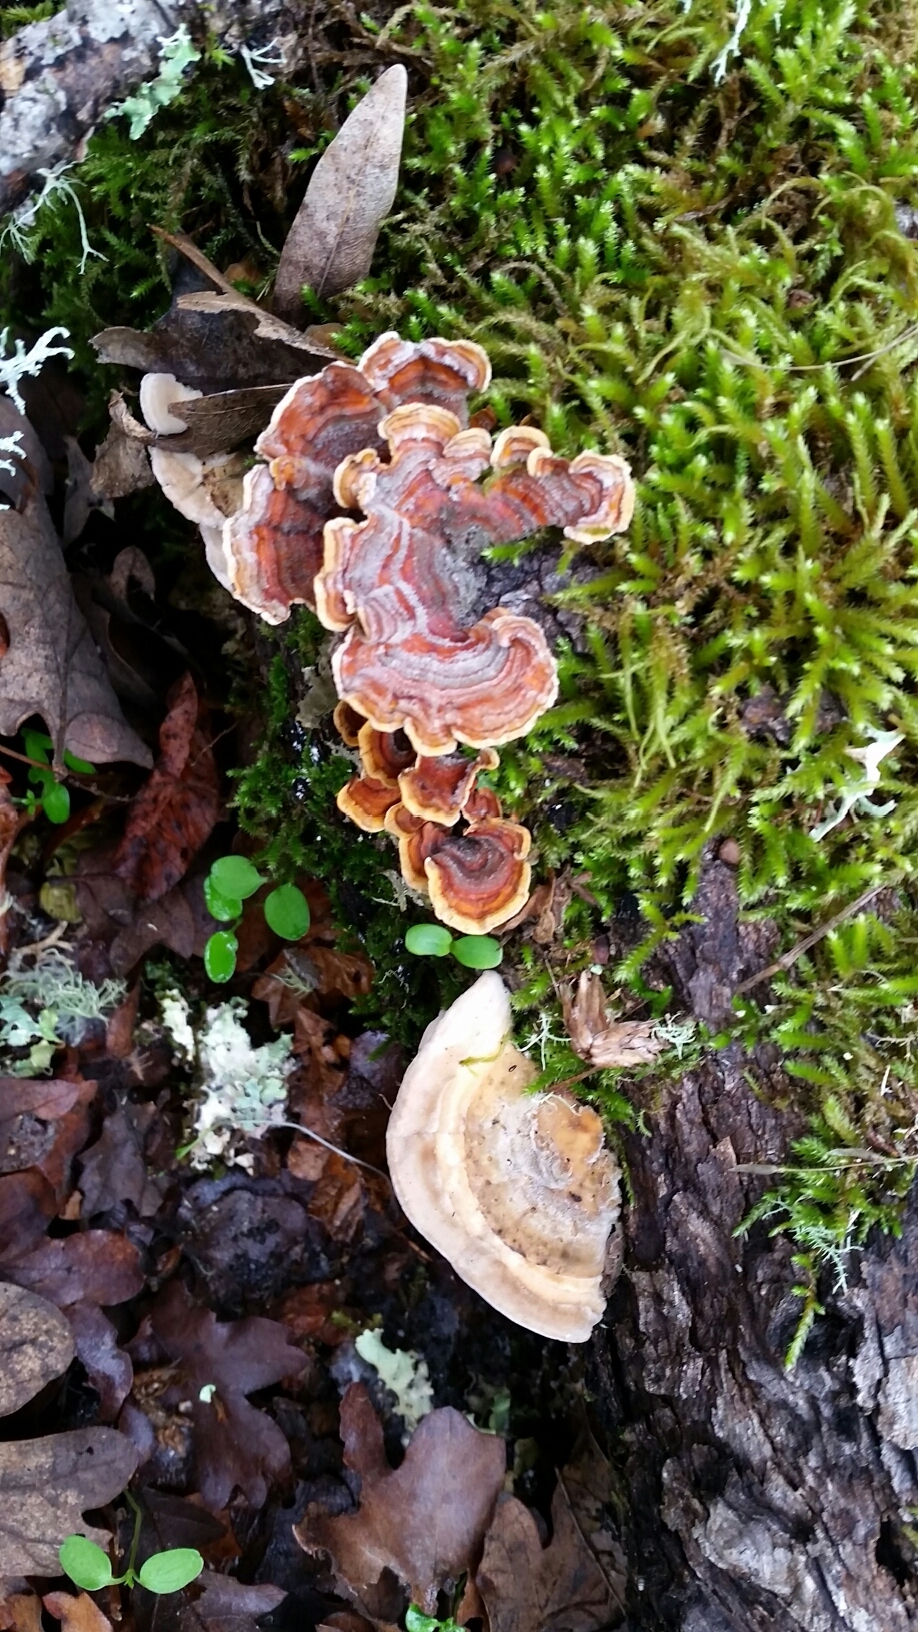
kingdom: Fungi
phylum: Basidiomycota
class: Agaricomycetes
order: Polyporales
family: Polyporaceae
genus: Lenzites
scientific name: Lenzites betulinus
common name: Birch mazegill
